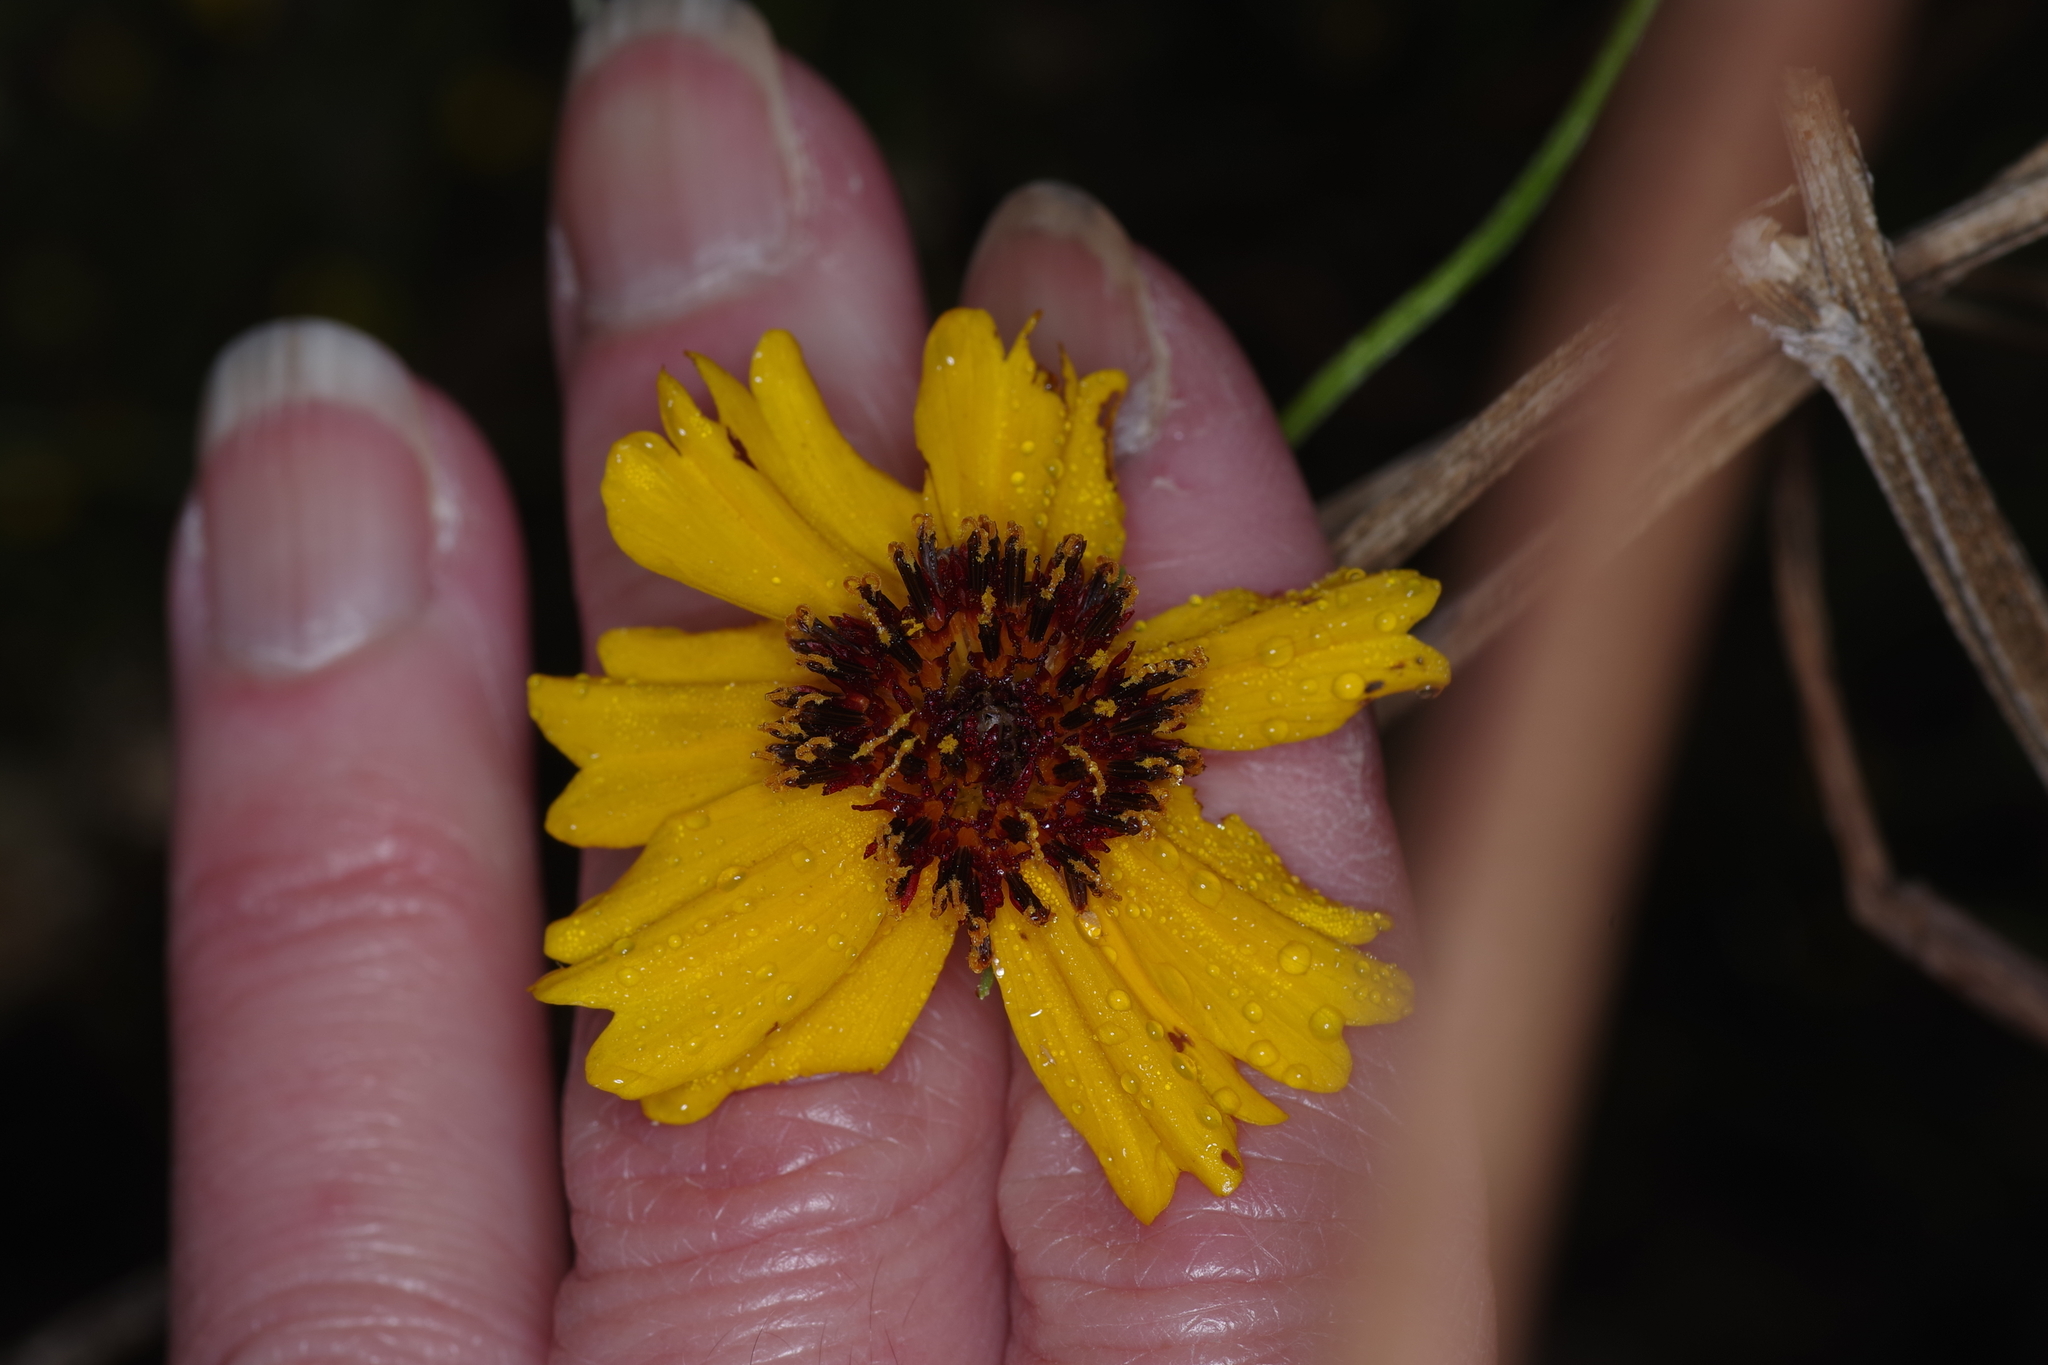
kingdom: Plantae
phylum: Tracheophyta
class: Magnoliopsida
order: Asterales
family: Asteraceae
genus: Thelesperma
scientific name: Thelesperma filifolium
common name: Stiff greenthread
